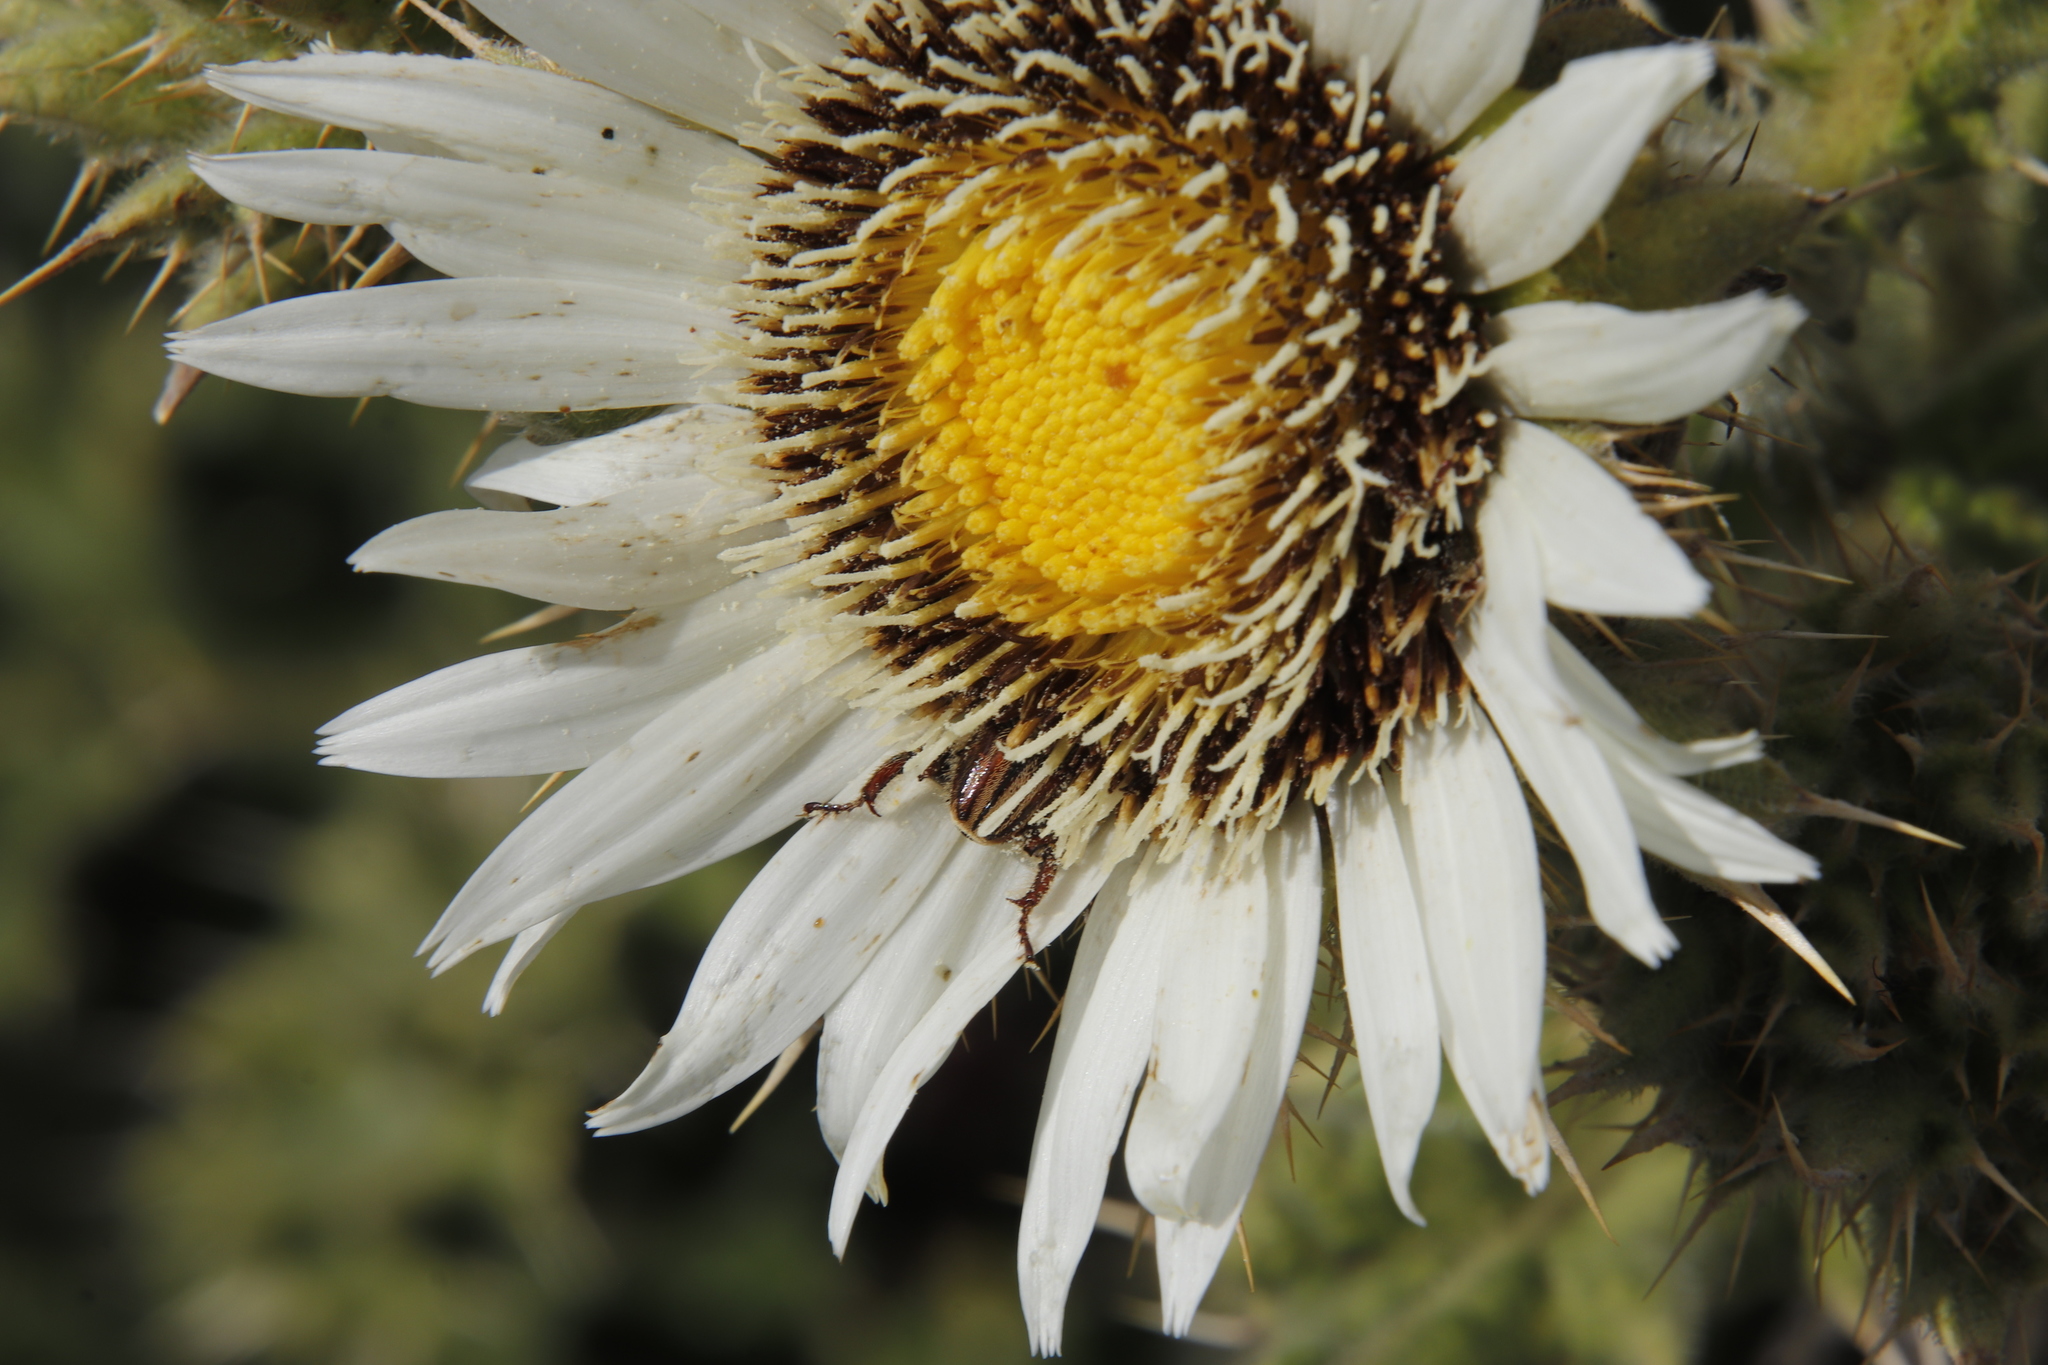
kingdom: Plantae
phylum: Tracheophyta
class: Magnoliopsida
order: Asterales
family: Asteraceae
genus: Berkheya
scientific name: Berkheya cirsiifolia
